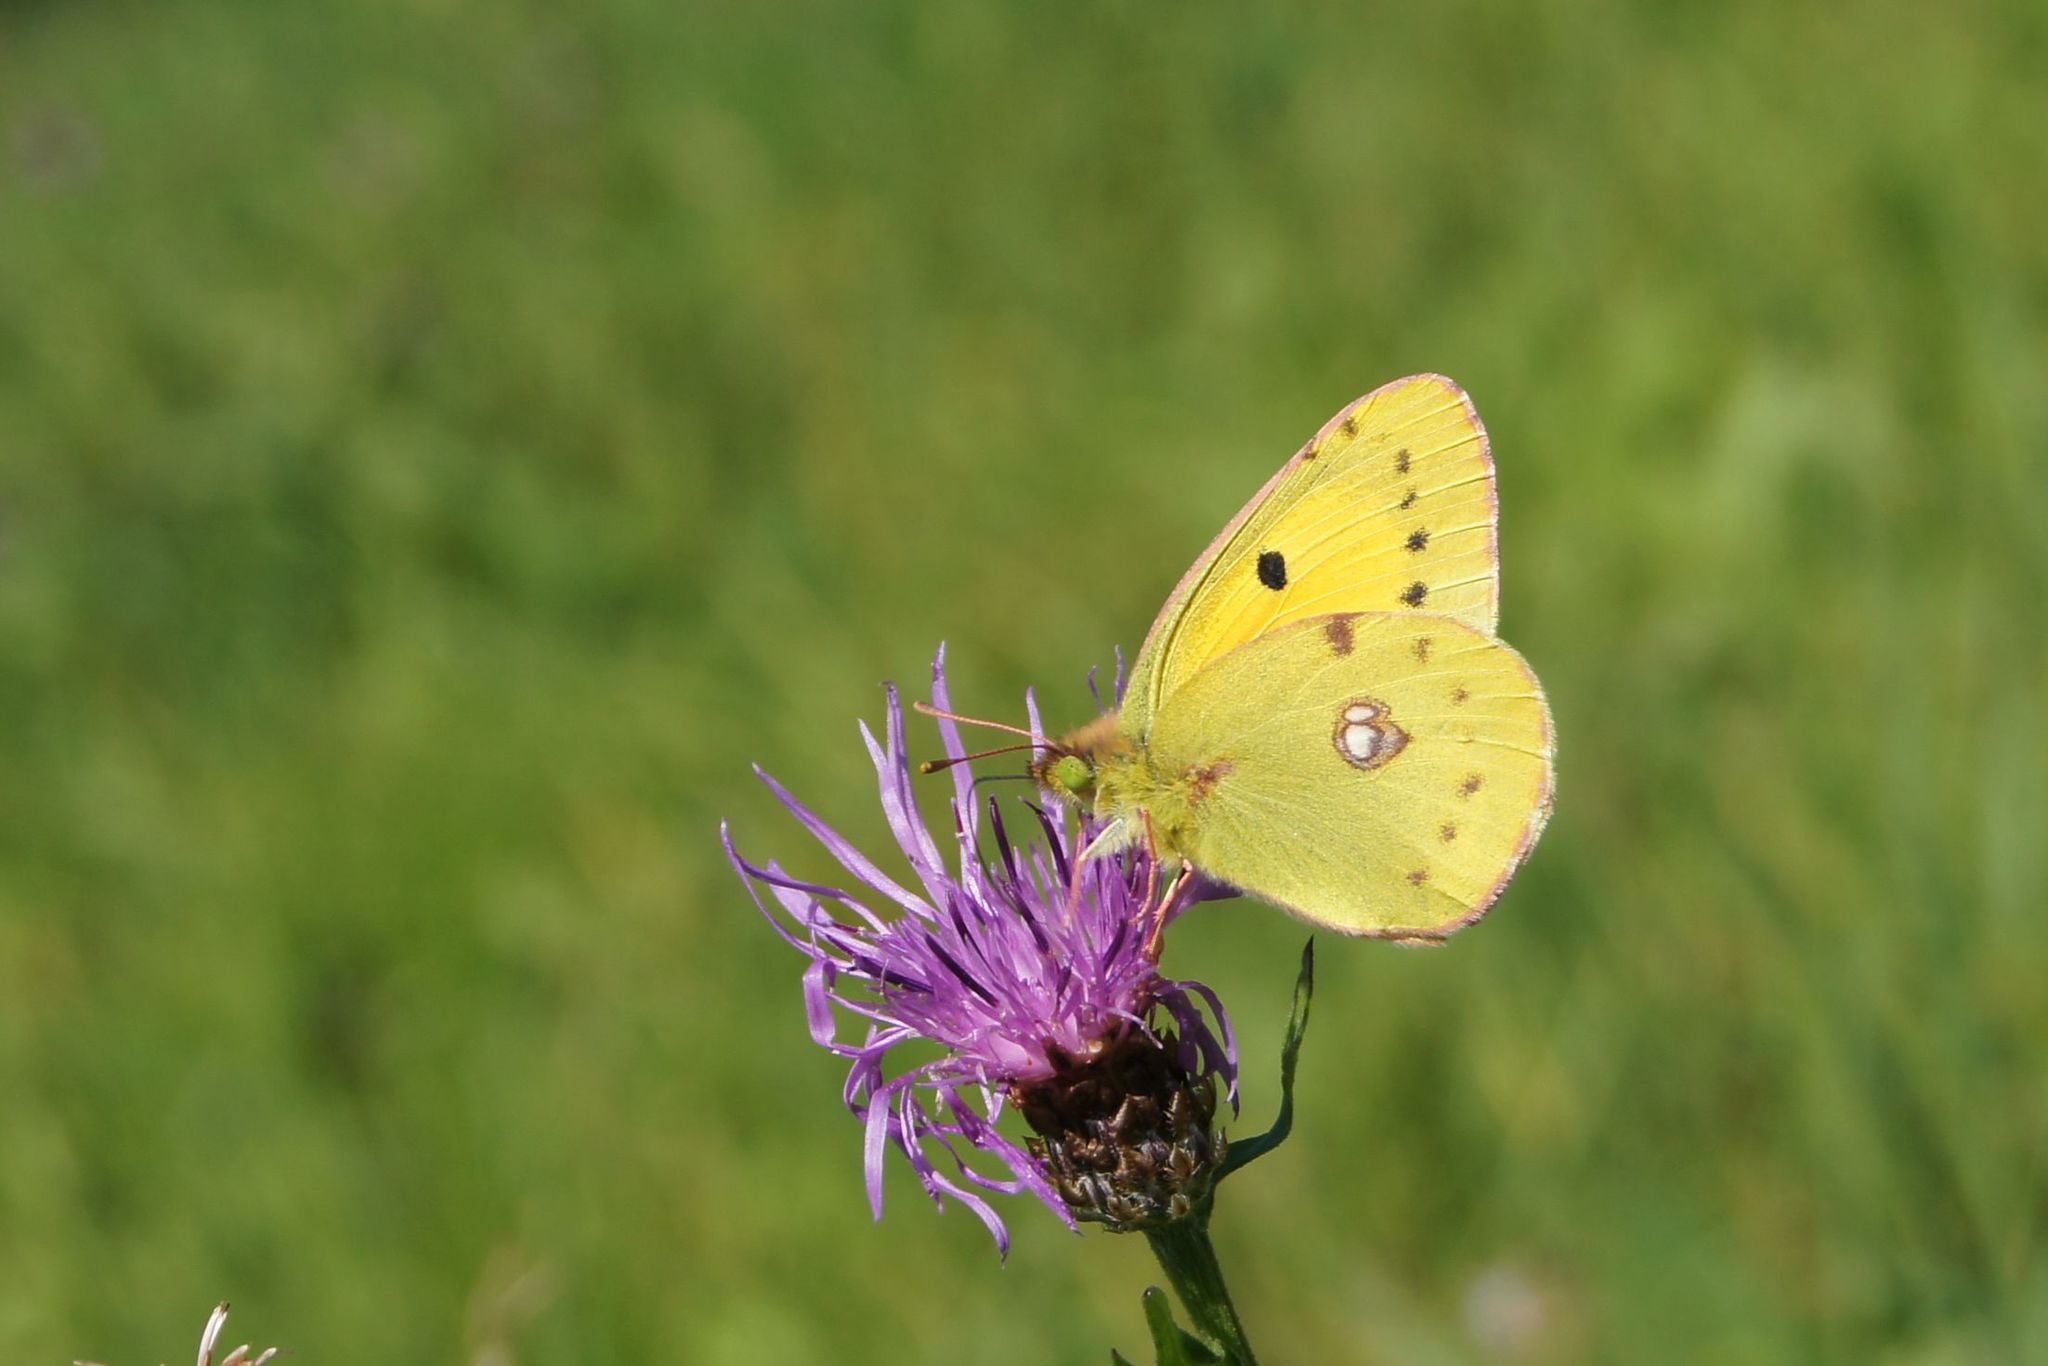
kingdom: Animalia
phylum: Arthropoda
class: Insecta
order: Lepidoptera
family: Pieridae
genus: Colias
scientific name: Colias croceus
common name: Clouded yellow
